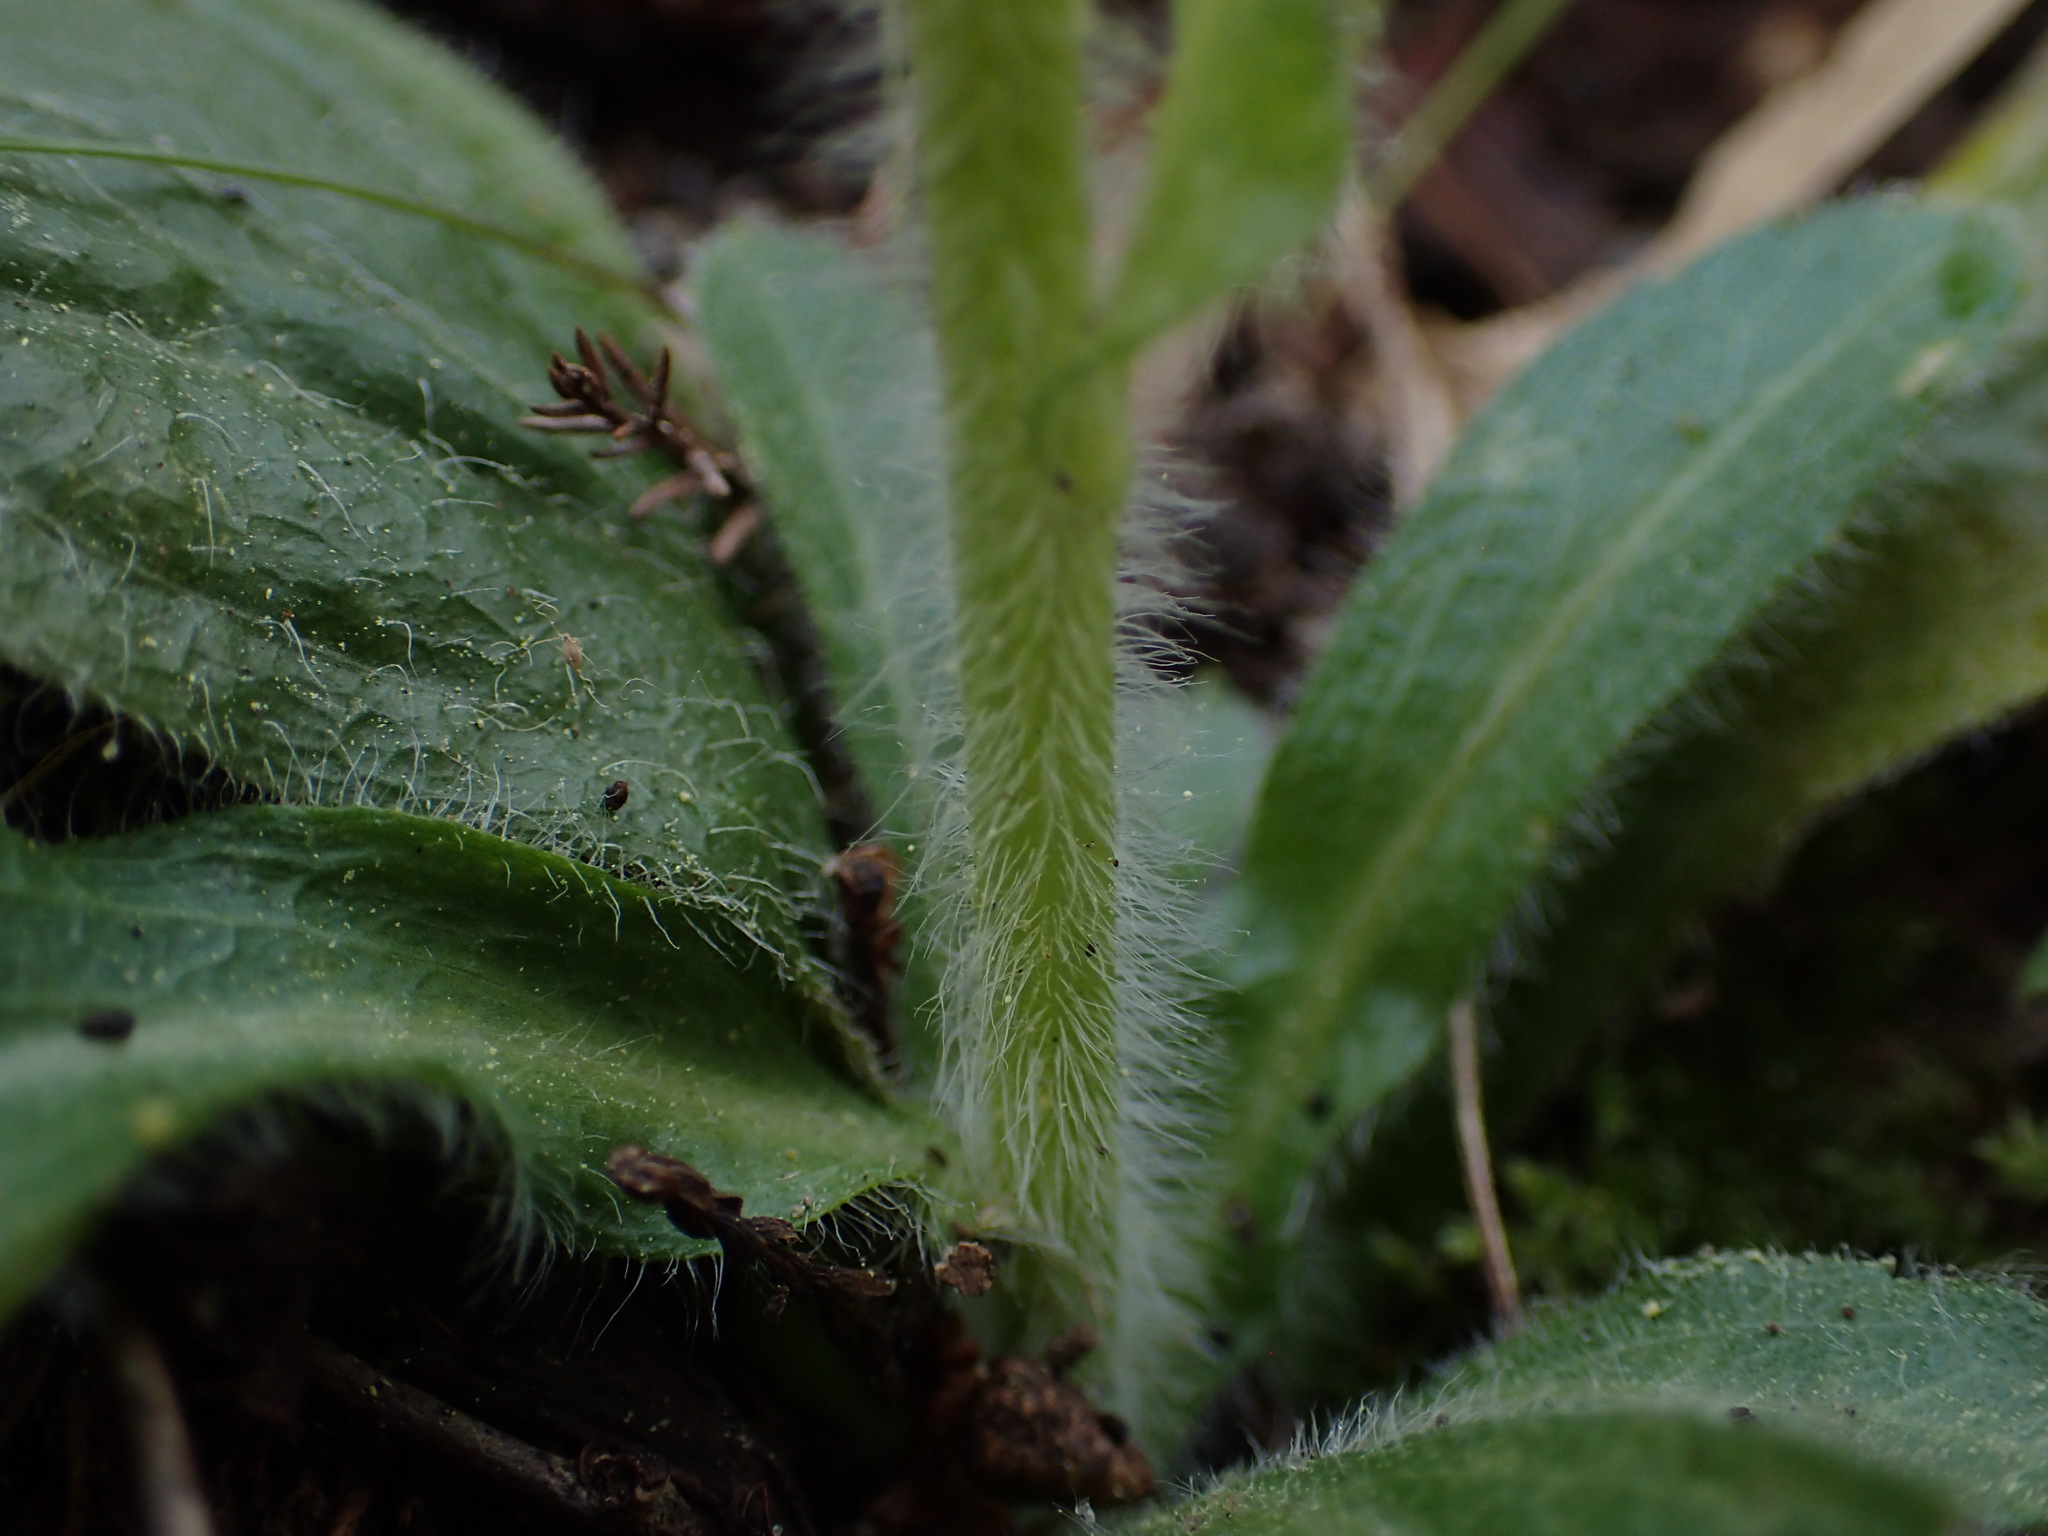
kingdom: Plantae
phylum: Tracheophyta
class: Magnoliopsida
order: Asterales
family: Asteraceae
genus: Erigeron
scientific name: Erigeron pulchellus
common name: Hairy fleabane
